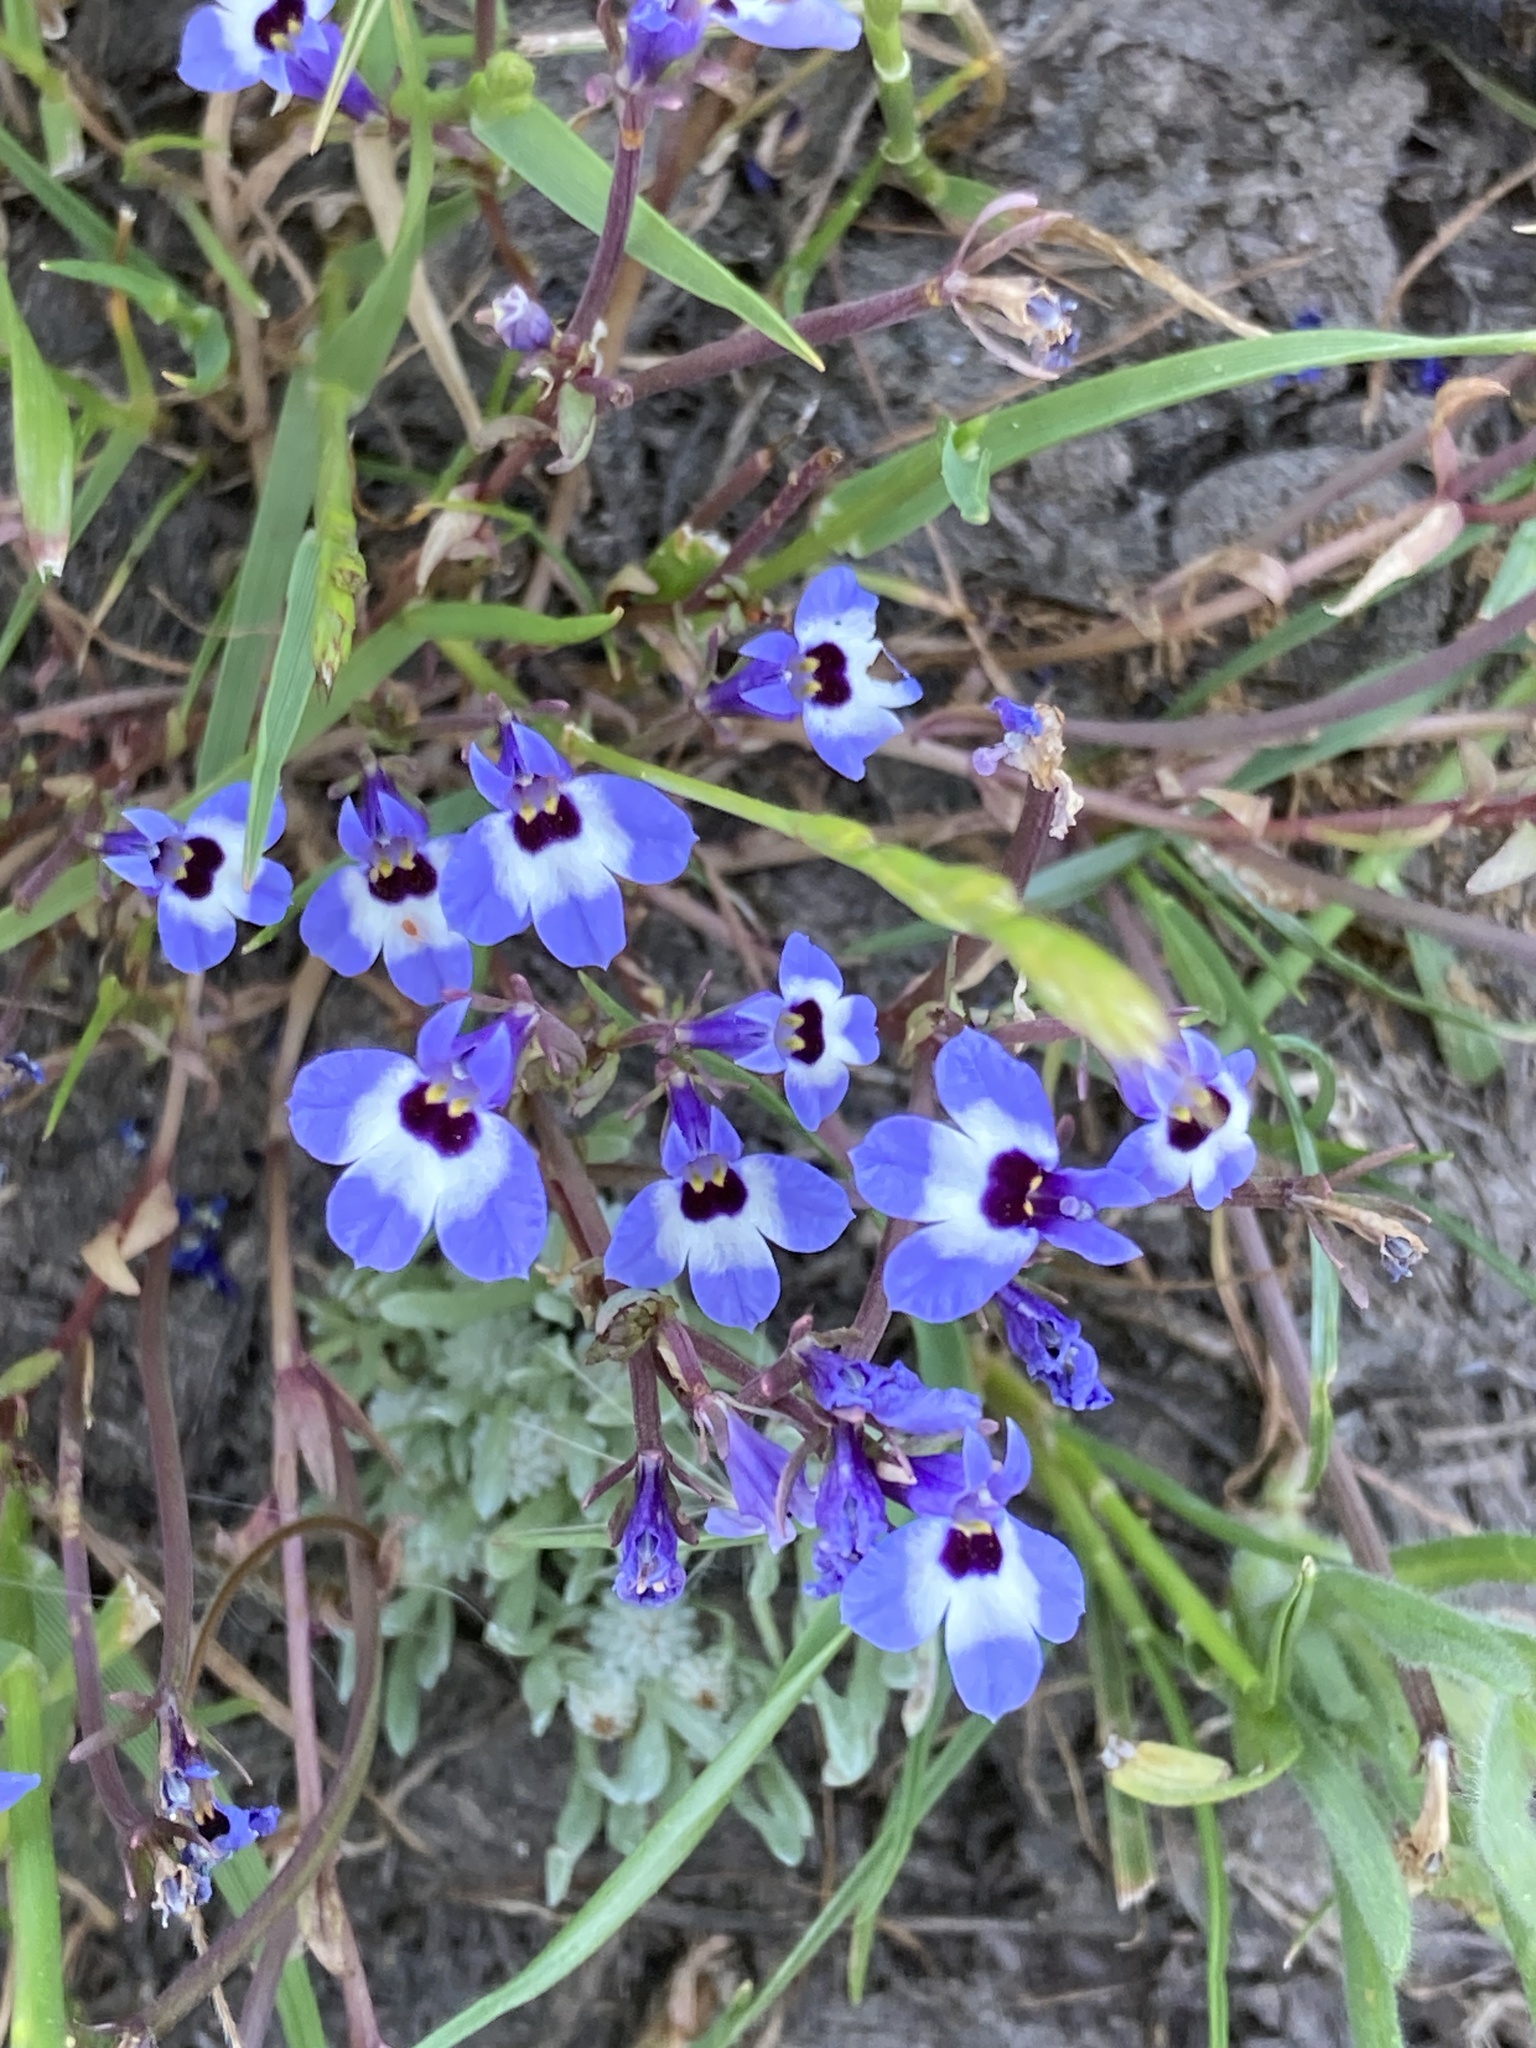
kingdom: Plantae
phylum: Tracheophyta
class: Magnoliopsida
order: Asterales
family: Campanulaceae
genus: Downingia
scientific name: Downingia concolor
